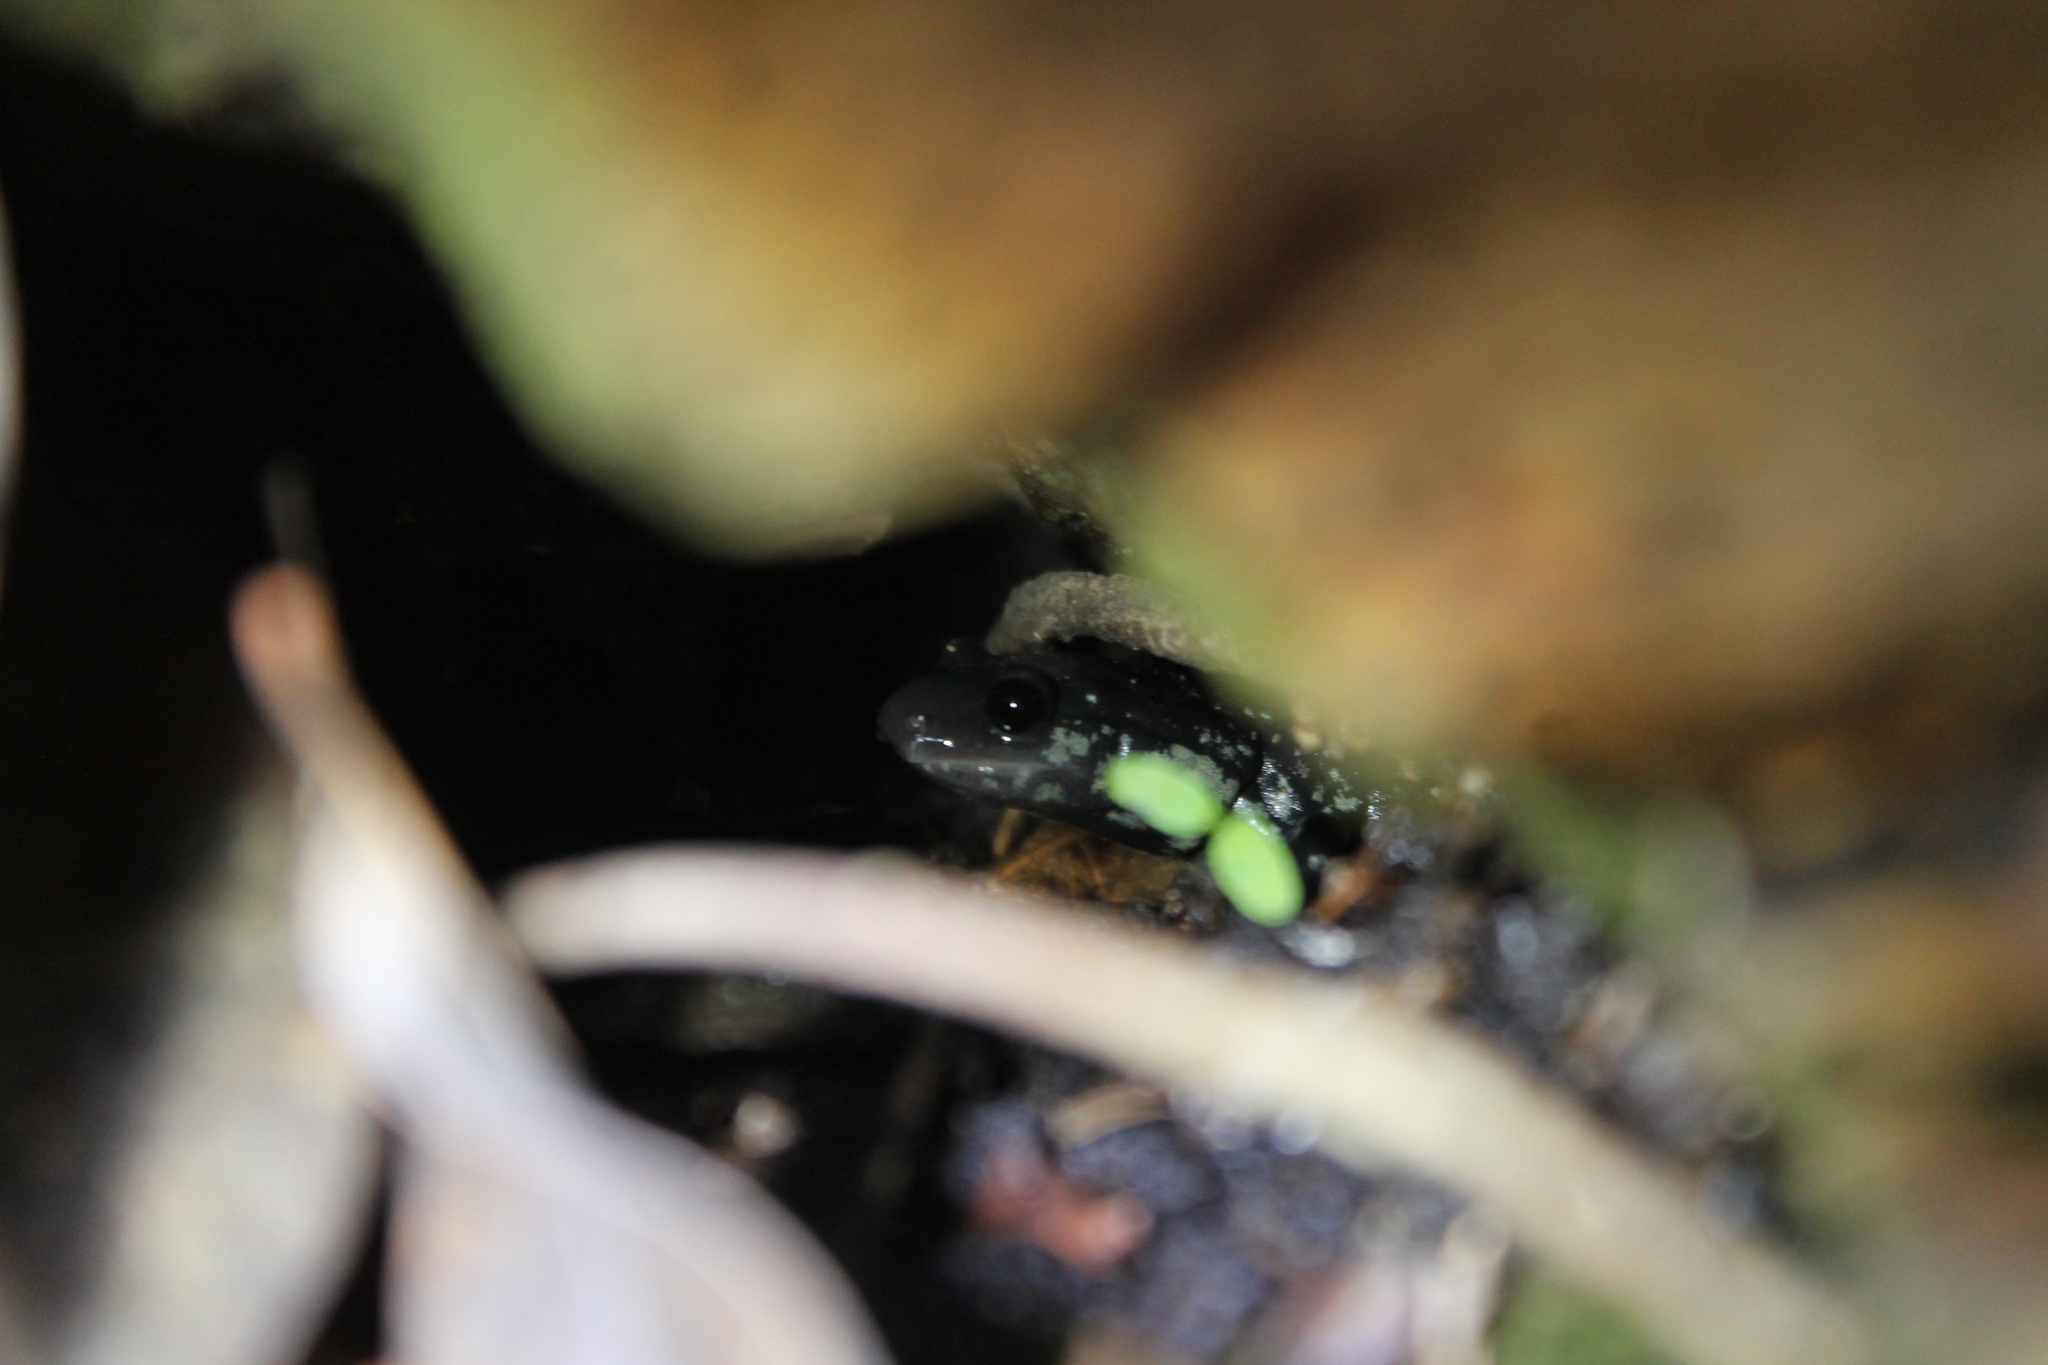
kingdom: Animalia
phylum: Chordata
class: Amphibia
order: Caudata
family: Plethodontidae
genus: Plethodon
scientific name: Plethodon glutinosus
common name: Northern slimy salamander
